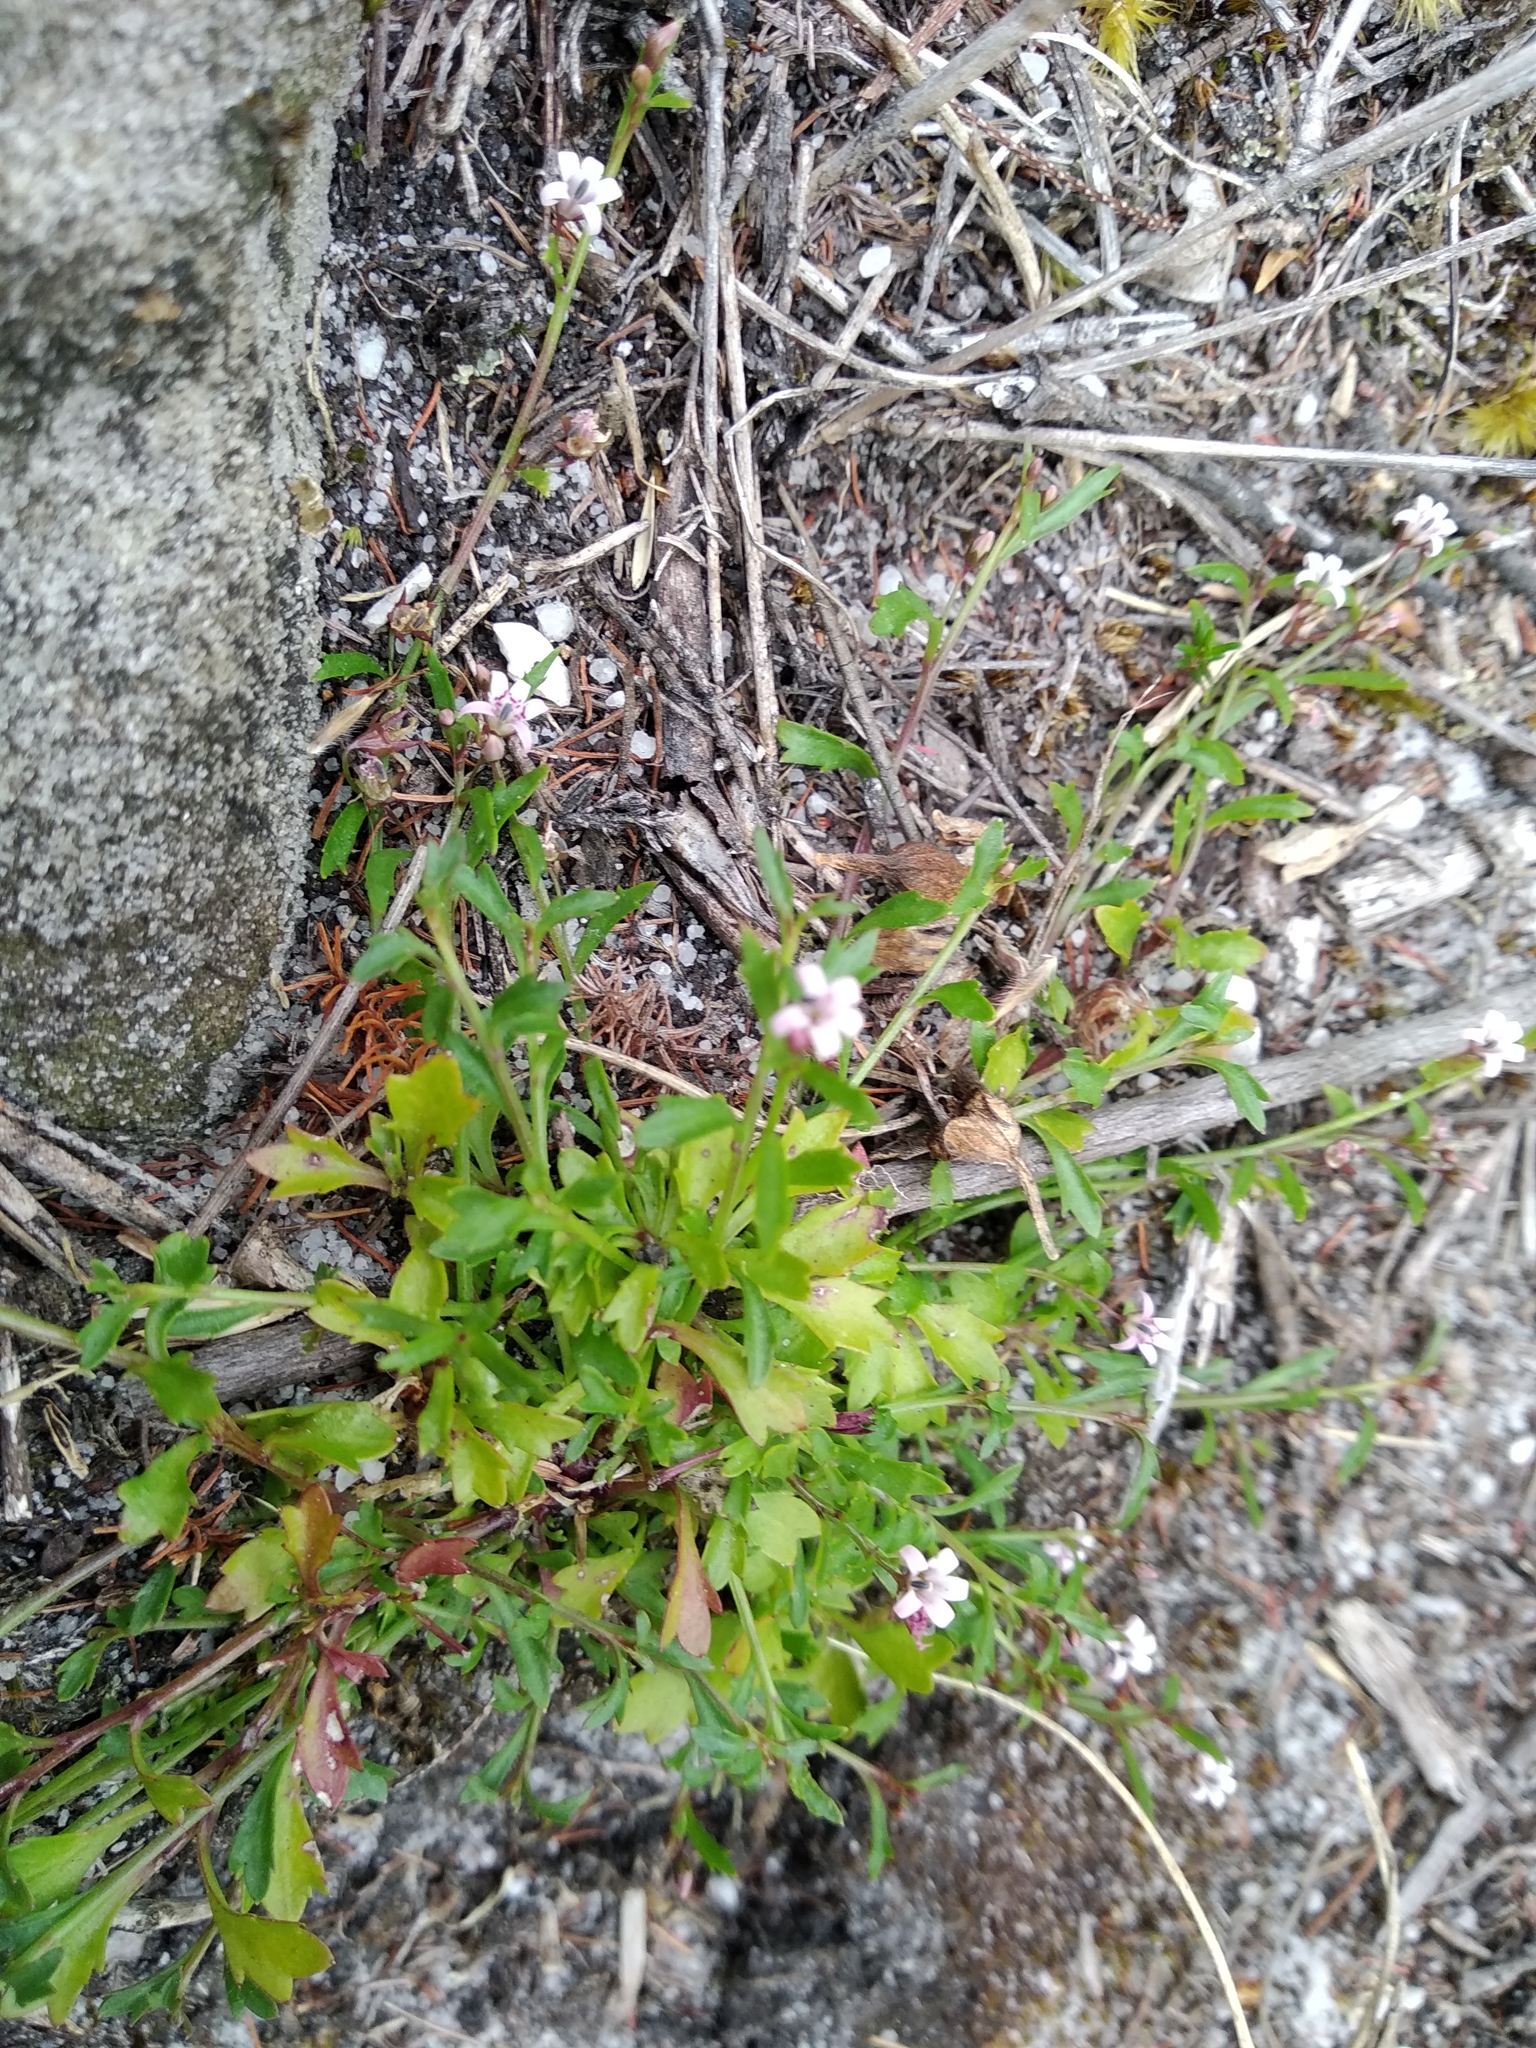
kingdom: Plantae
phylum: Tracheophyta
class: Magnoliopsida
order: Asterales
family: Campanulaceae
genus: Lobelia
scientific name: Lobelia eckloniana
